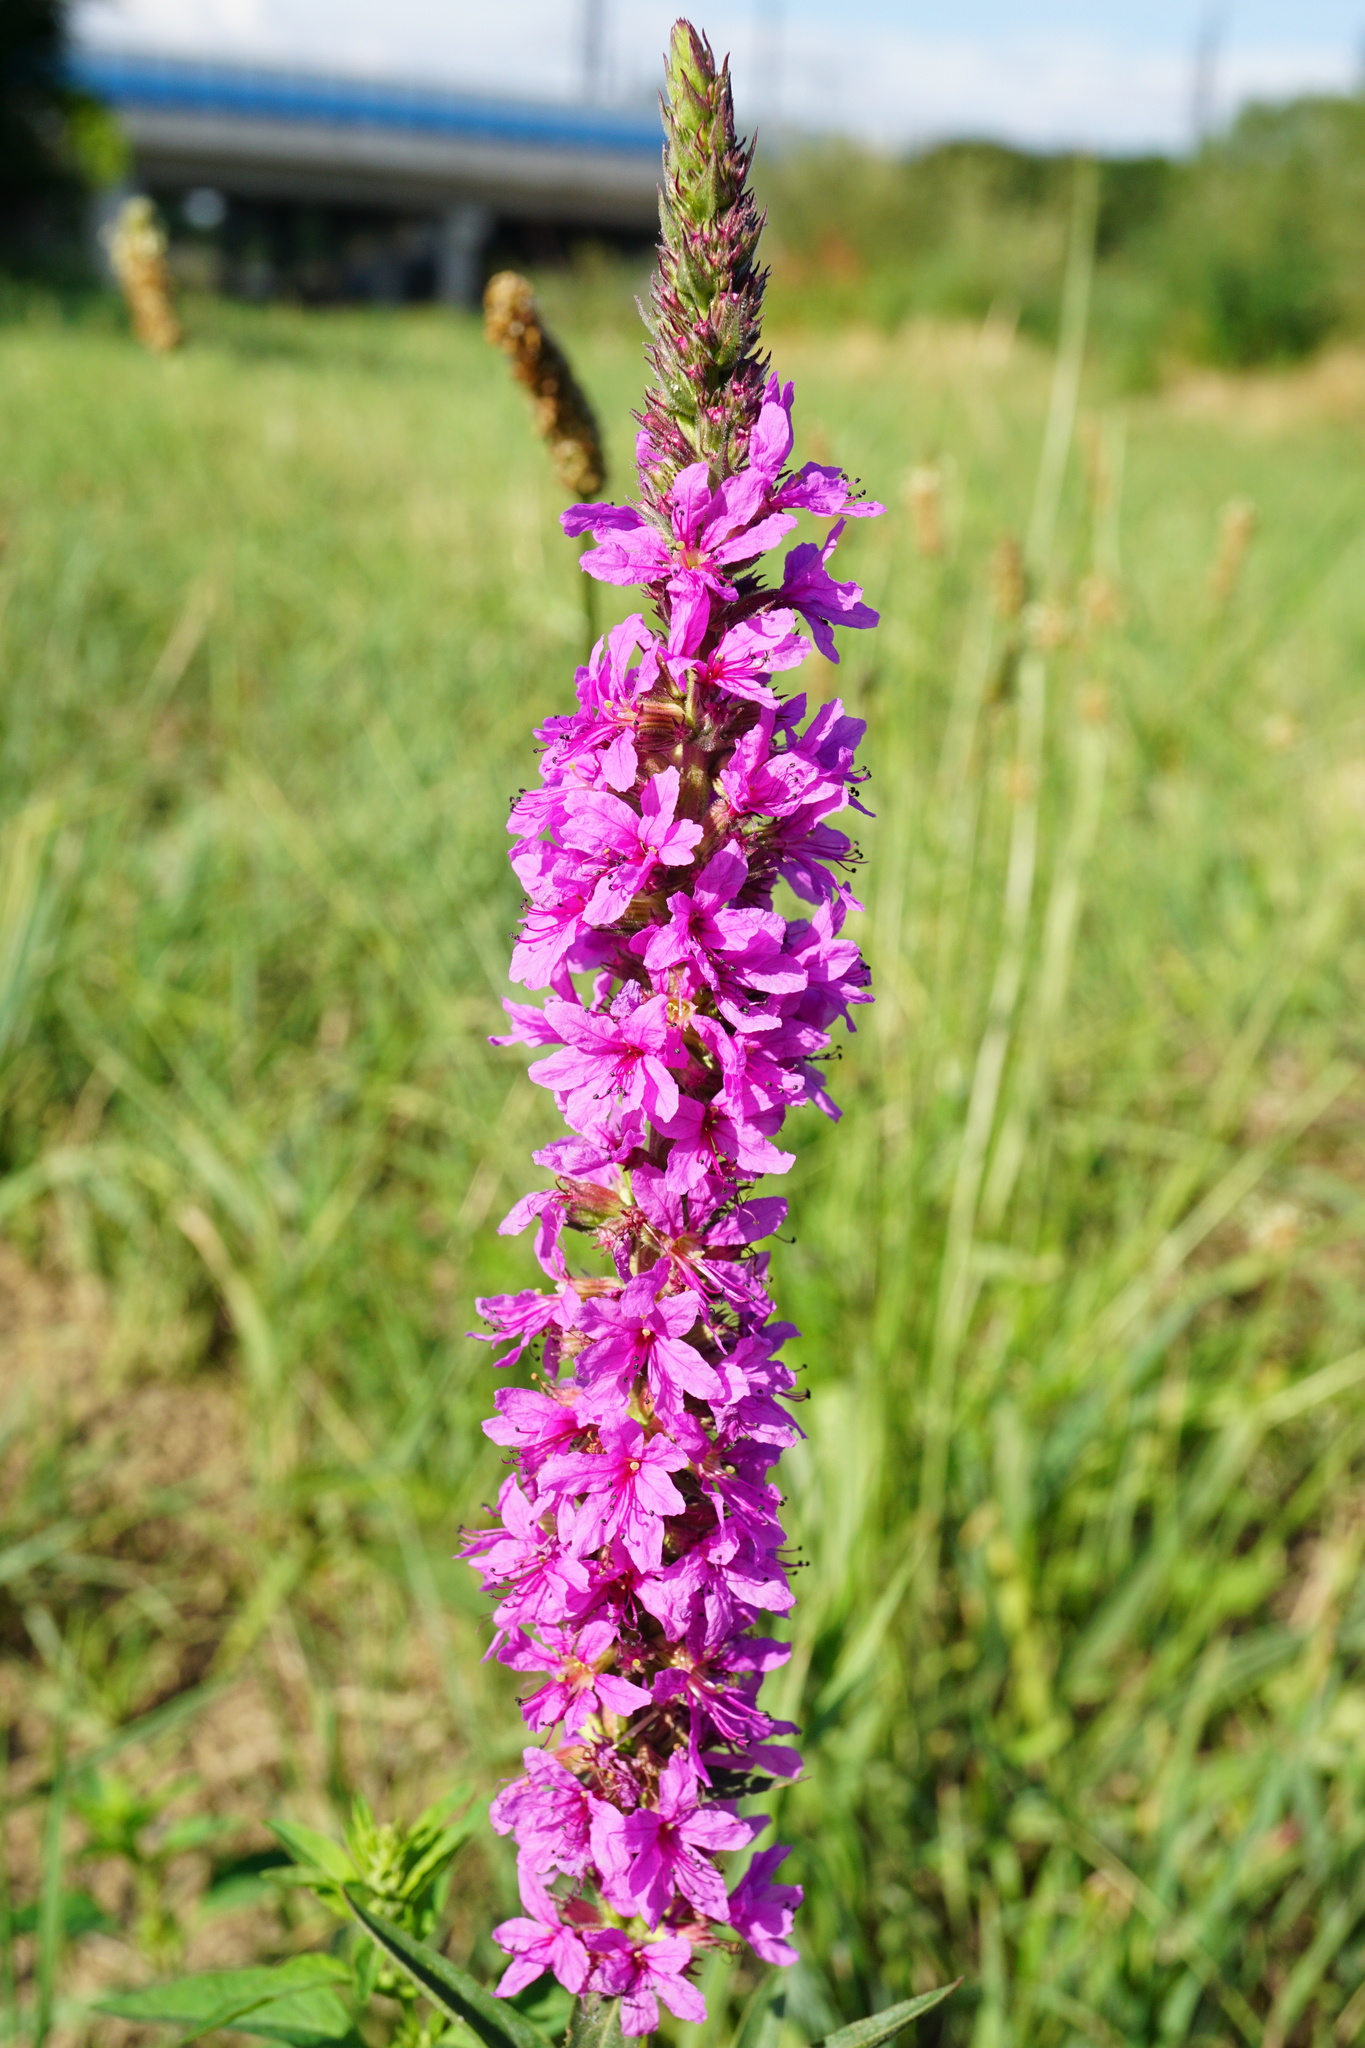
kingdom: Plantae
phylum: Tracheophyta
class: Magnoliopsida
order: Myrtales
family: Lythraceae
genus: Lythrum
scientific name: Lythrum salicaria
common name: Purple loosestrife
